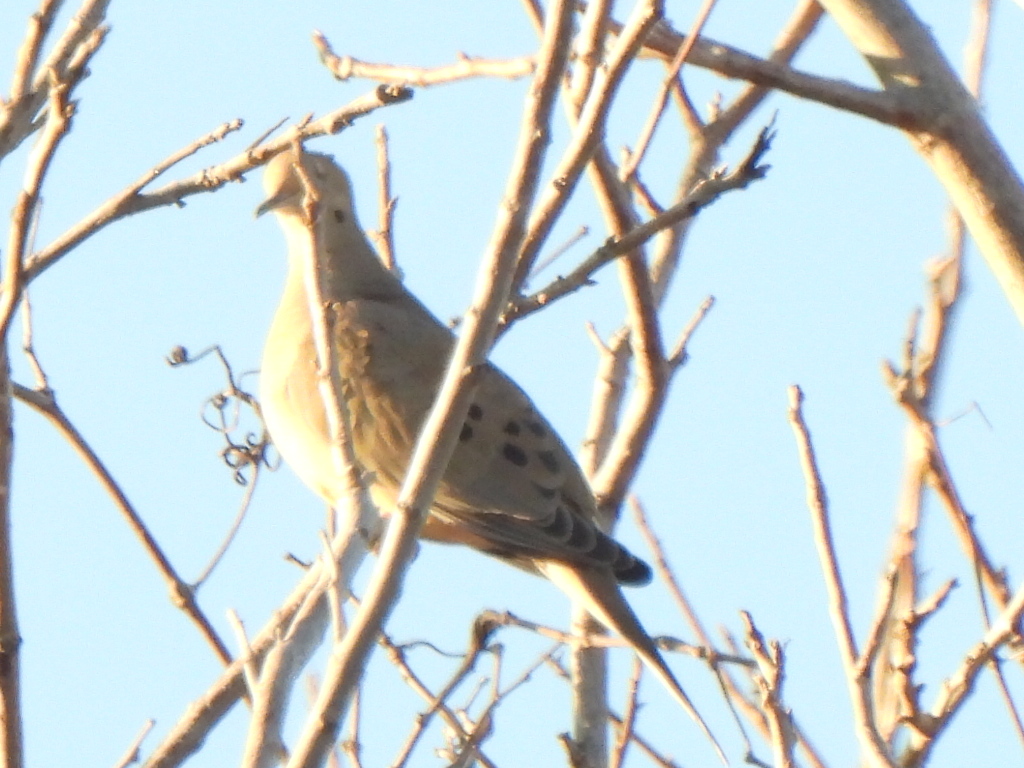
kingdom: Animalia
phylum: Chordata
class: Aves
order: Columbiformes
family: Columbidae
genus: Zenaida
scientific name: Zenaida macroura
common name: Mourning dove
